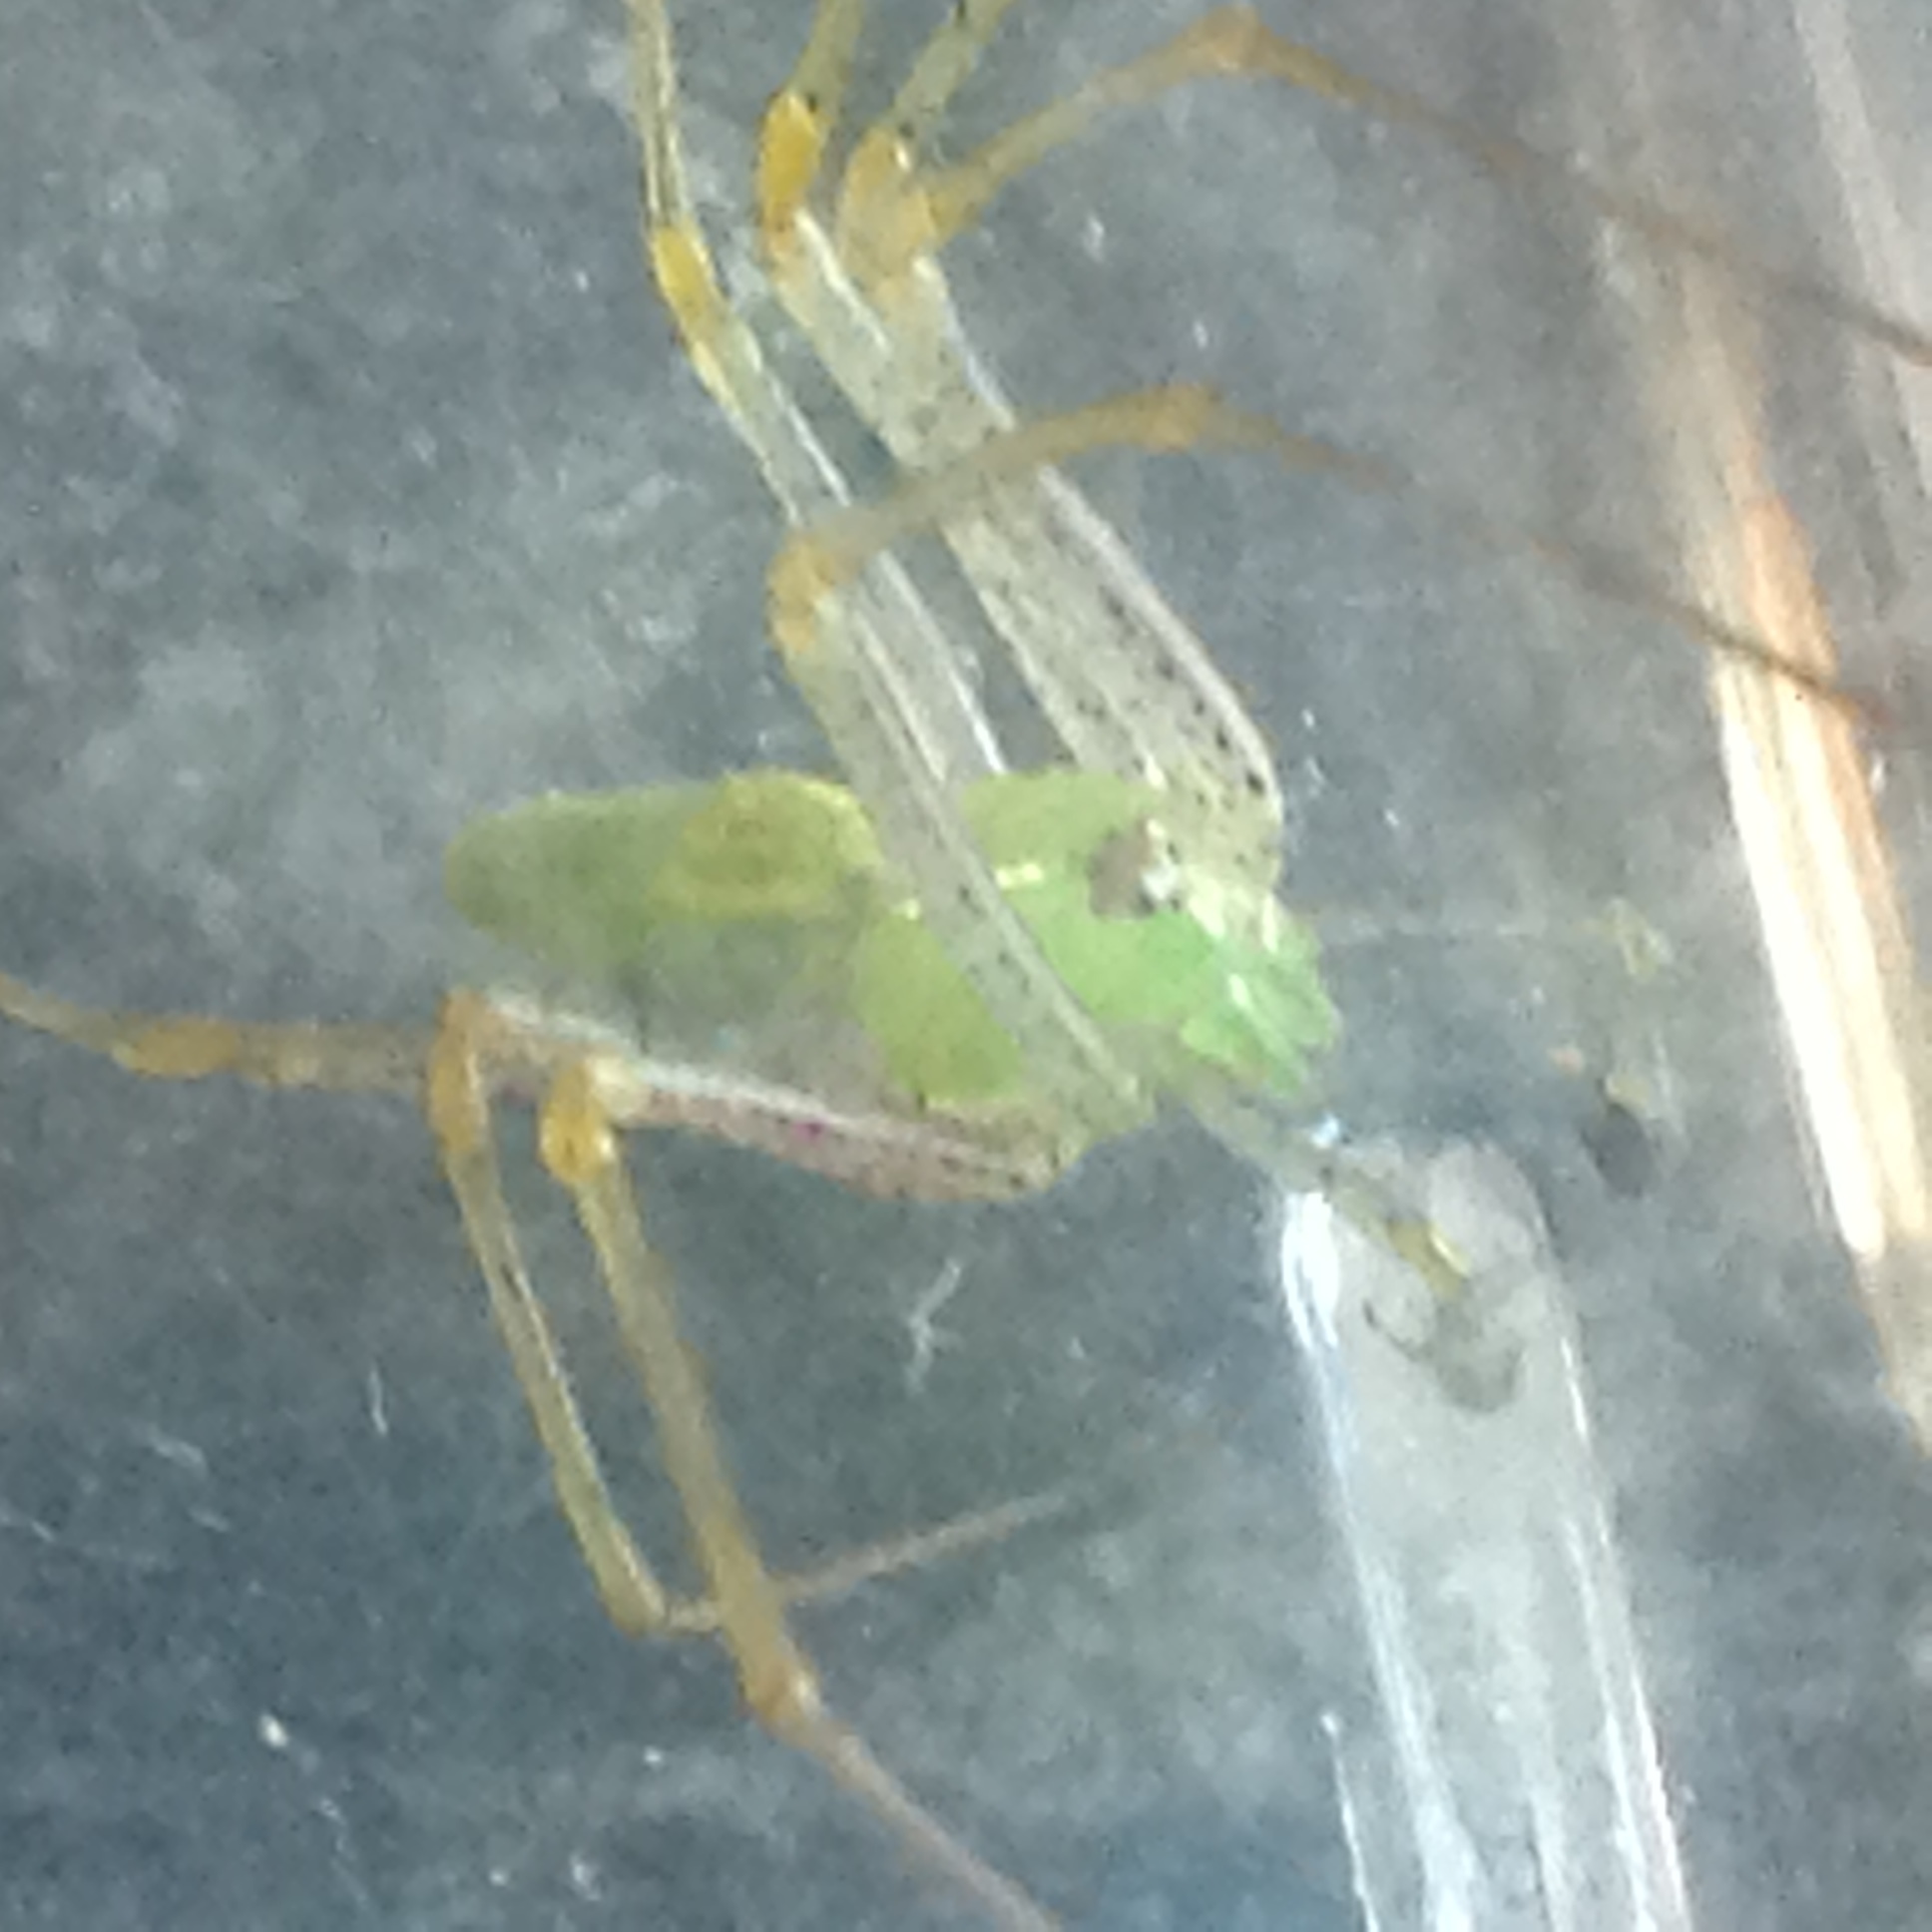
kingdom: Animalia
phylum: Arthropoda
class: Arachnida
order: Araneae
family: Oxyopidae
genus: Peucetia
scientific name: Peucetia viridans
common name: Lynx spiders
